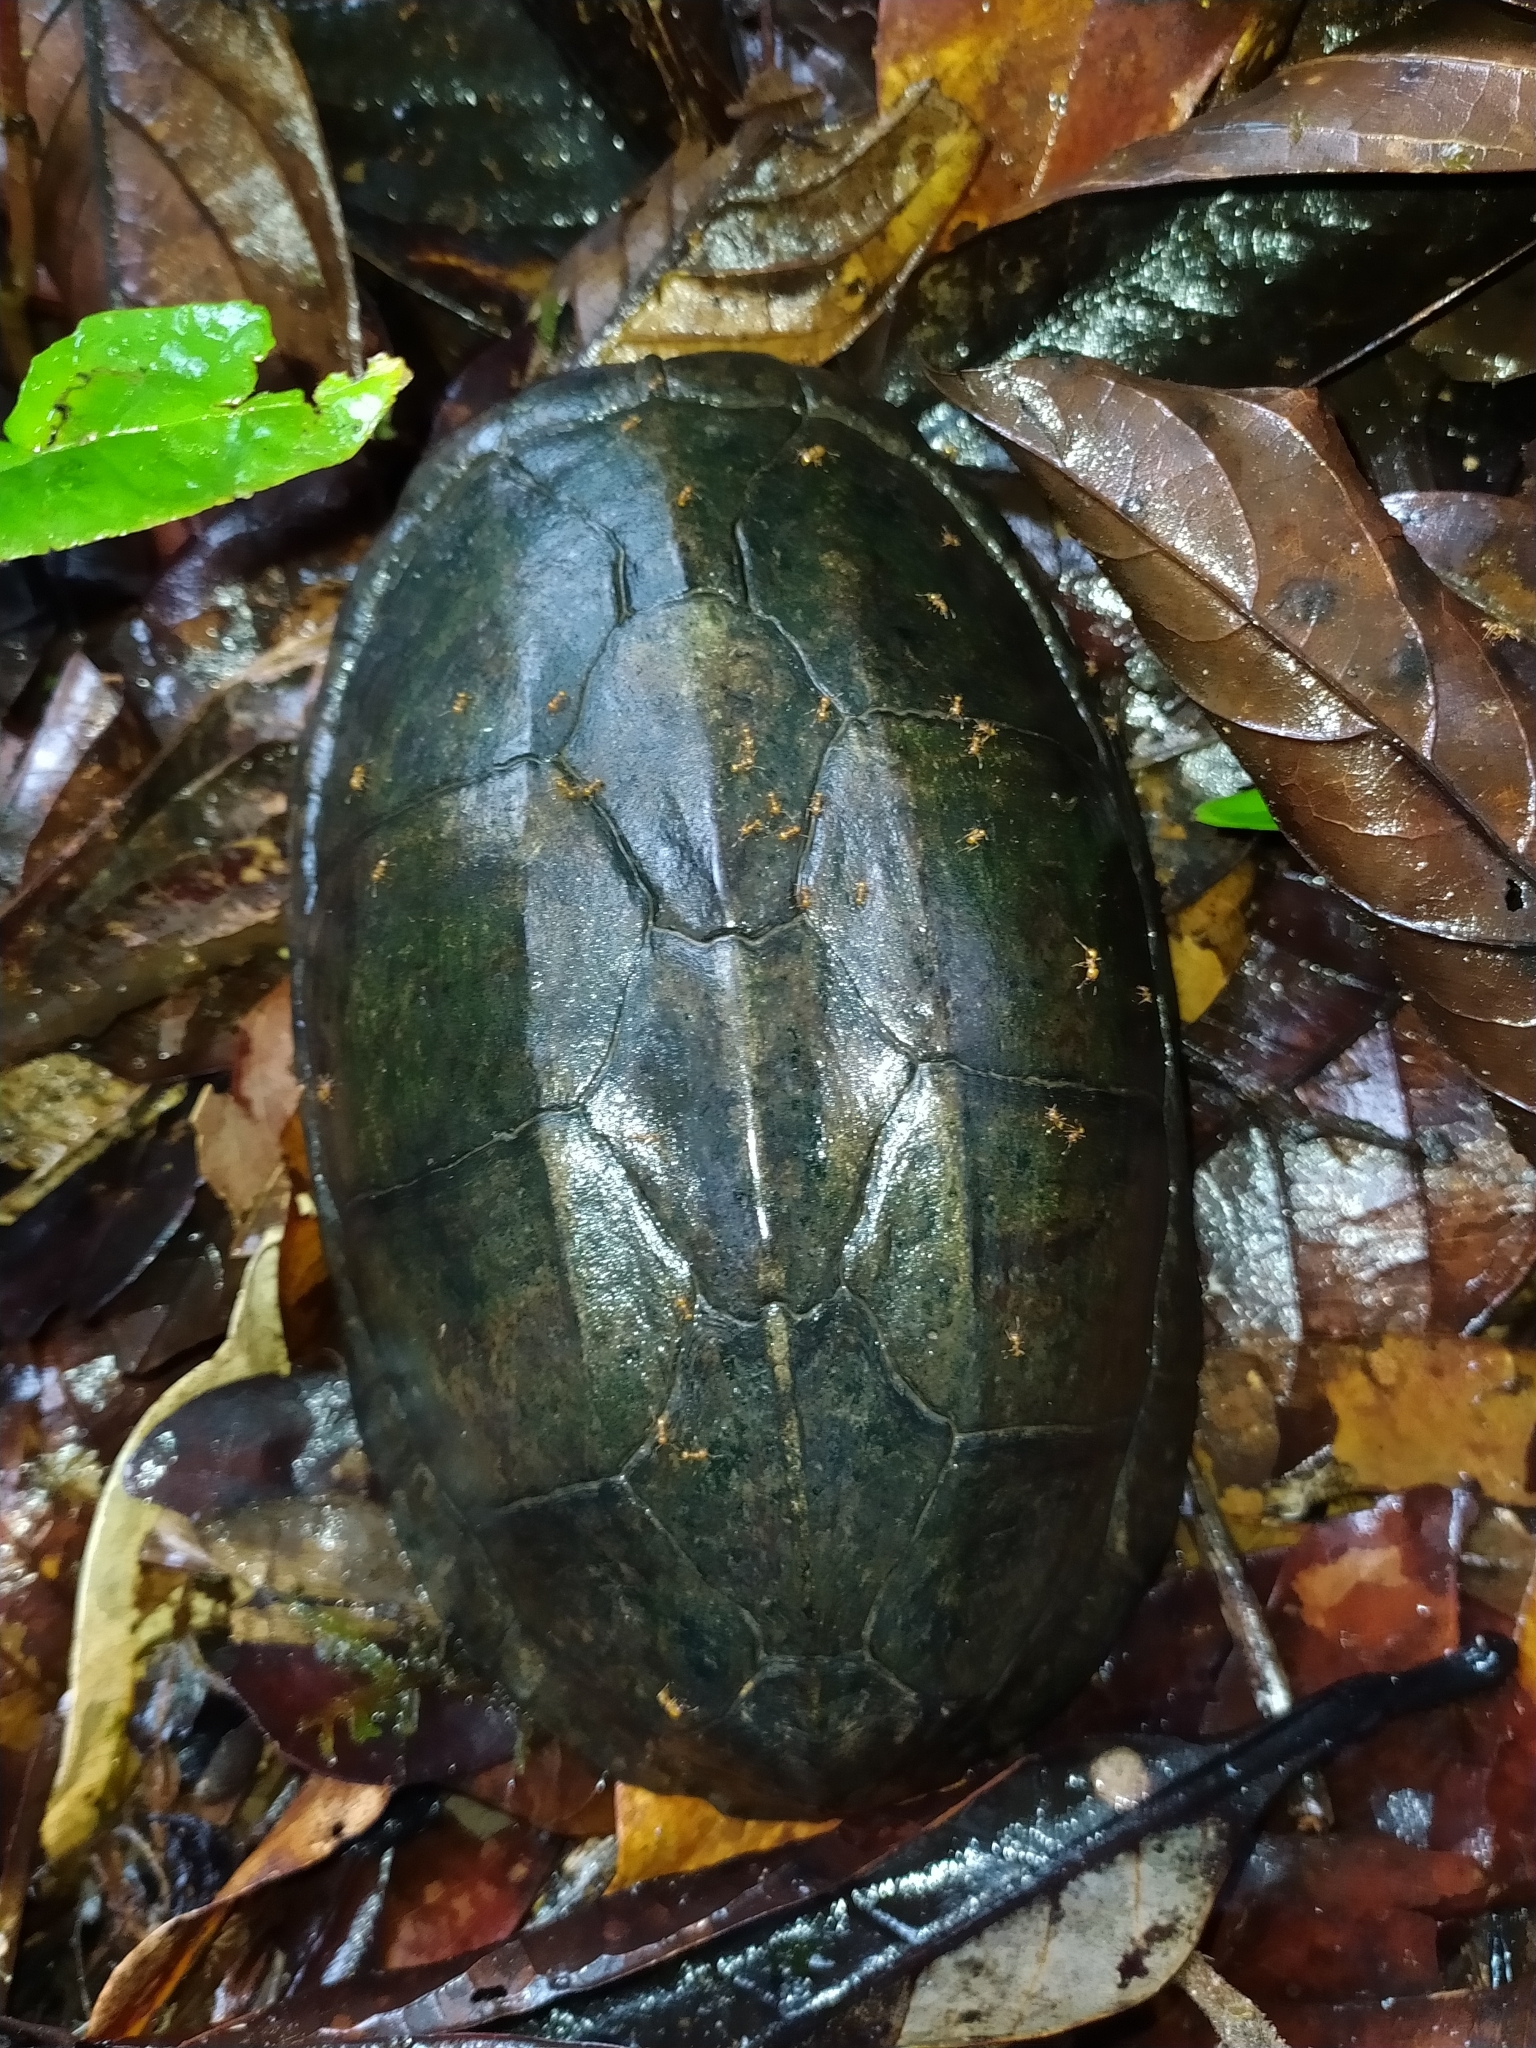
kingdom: Animalia
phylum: Chordata
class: Testudines
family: Kinosternidae
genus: Kinosternon
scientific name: Kinosternon scorpioides
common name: Scorpion mud turtle
